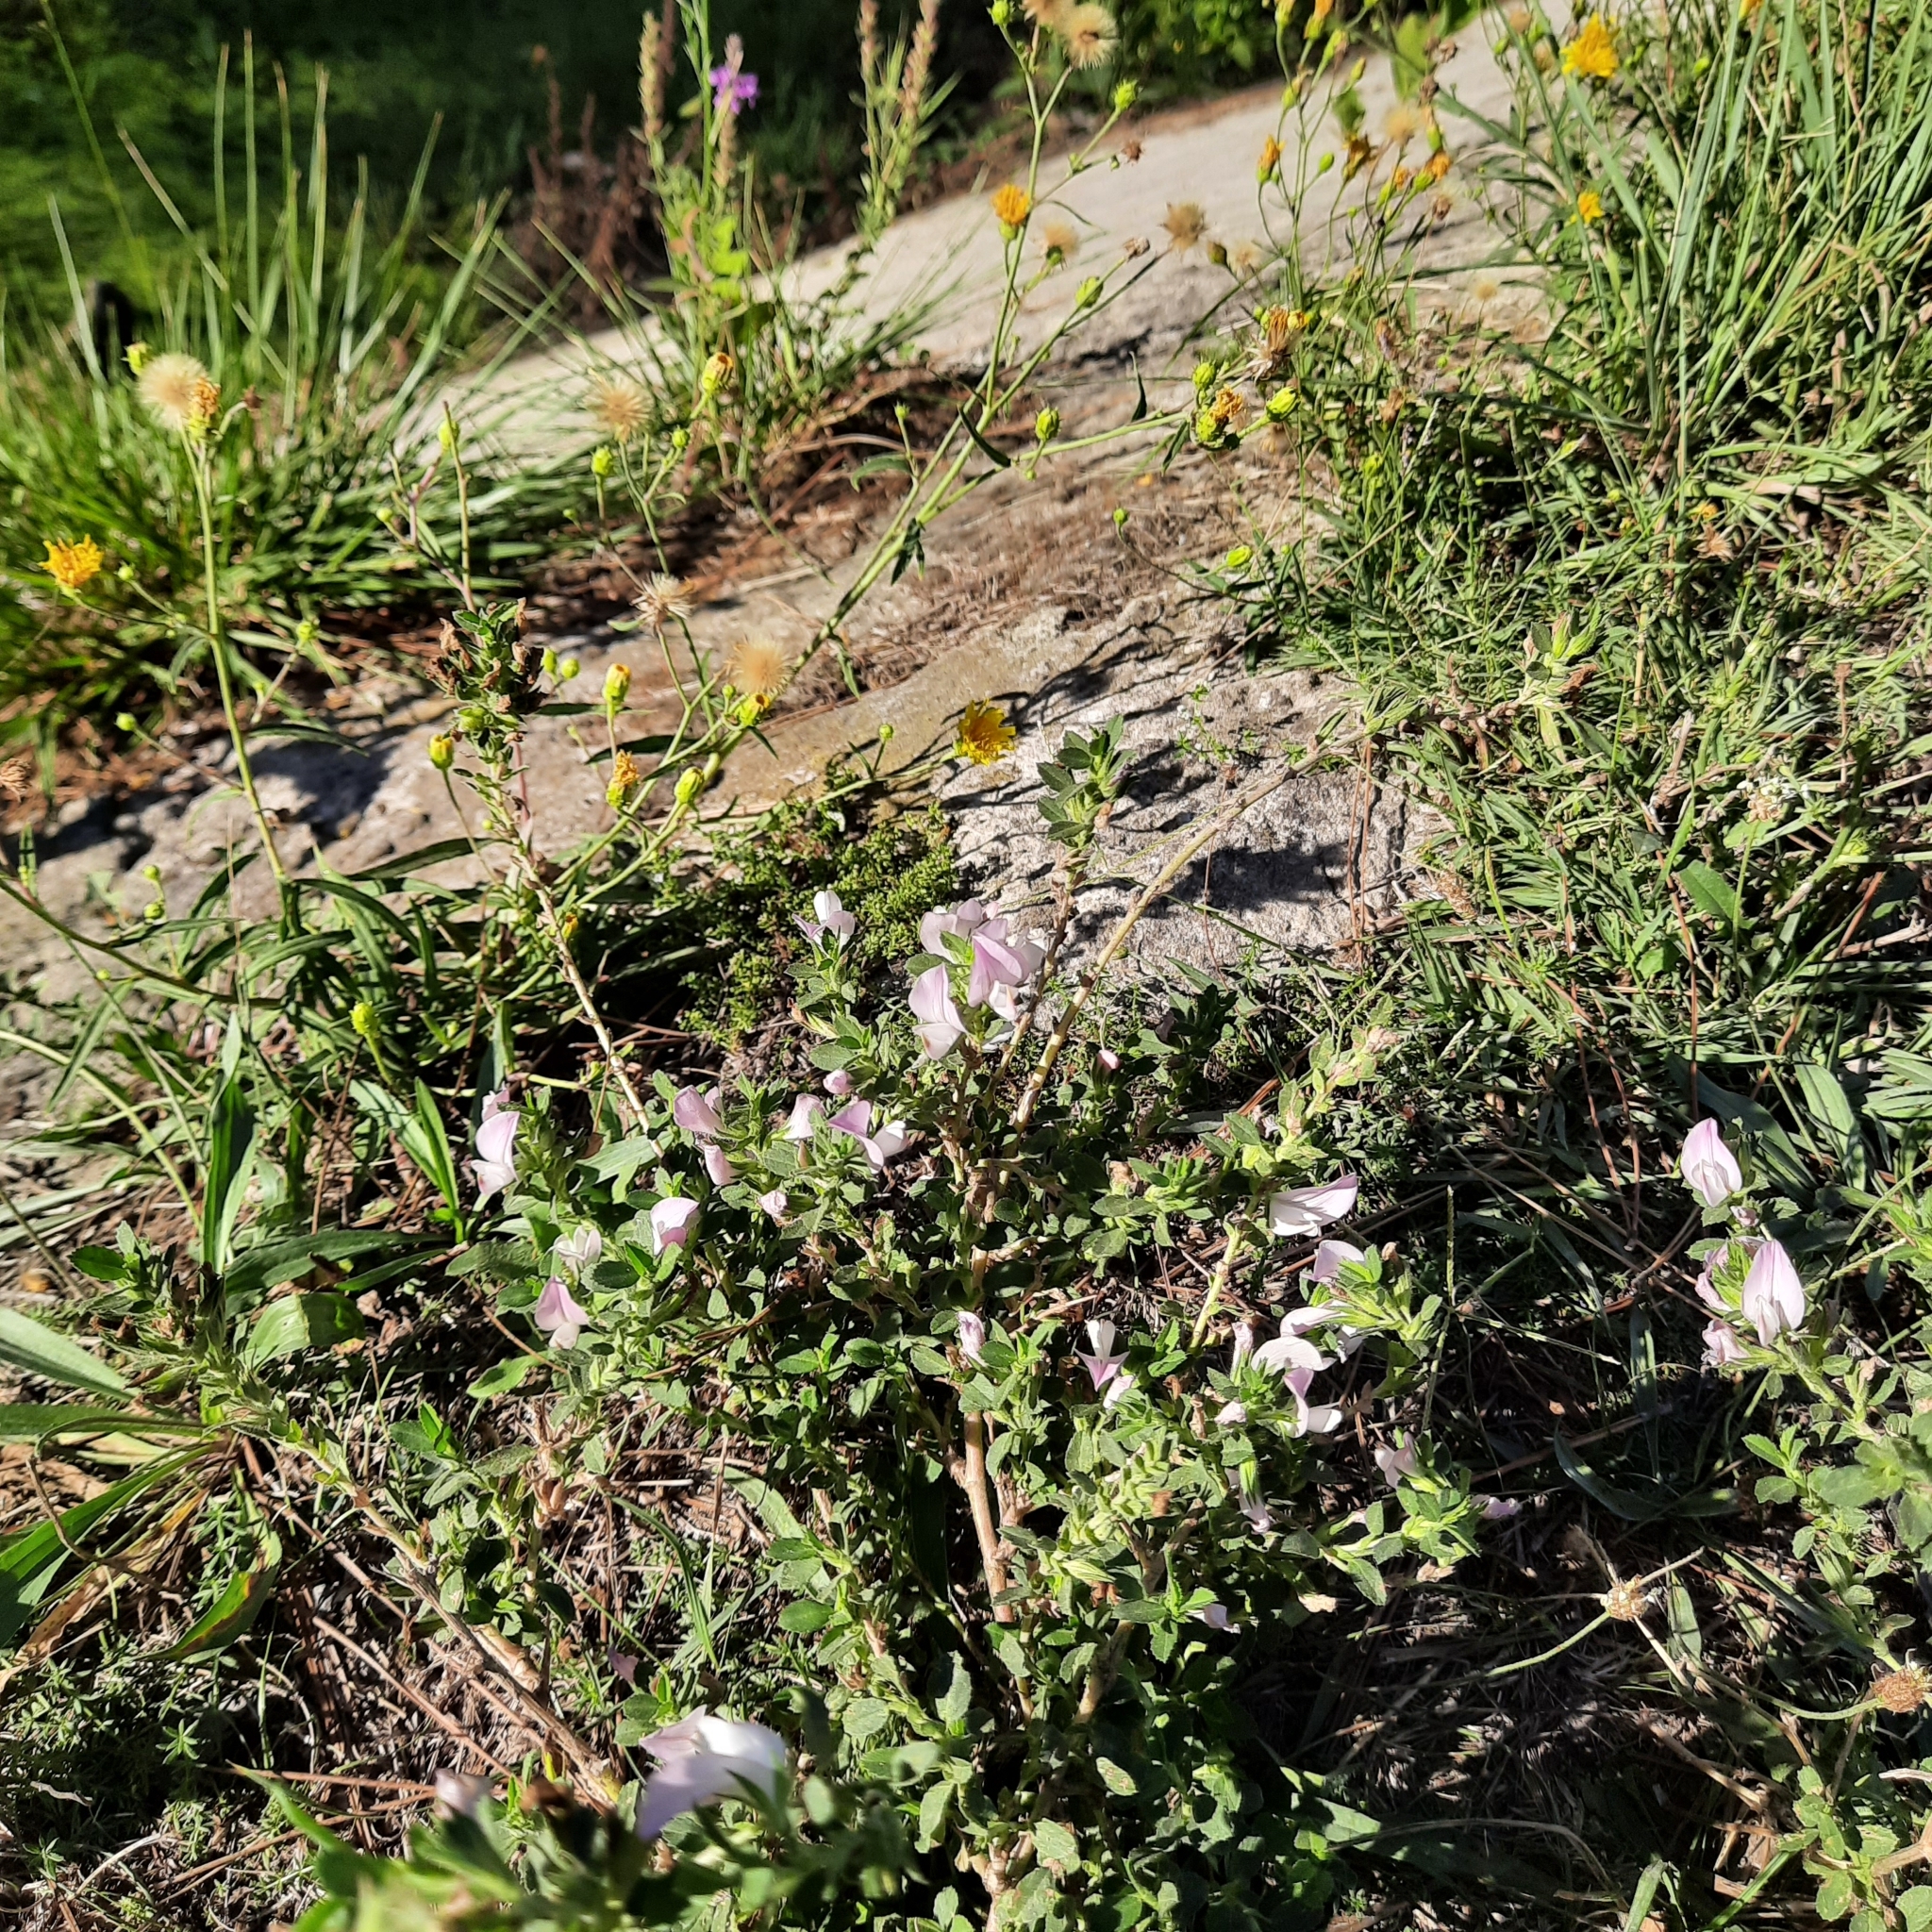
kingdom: Plantae
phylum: Tracheophyta
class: Magnoliopsida
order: Fabales
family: Fabaceae
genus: Ononis
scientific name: Ononis arvensis
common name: Field restharrow
